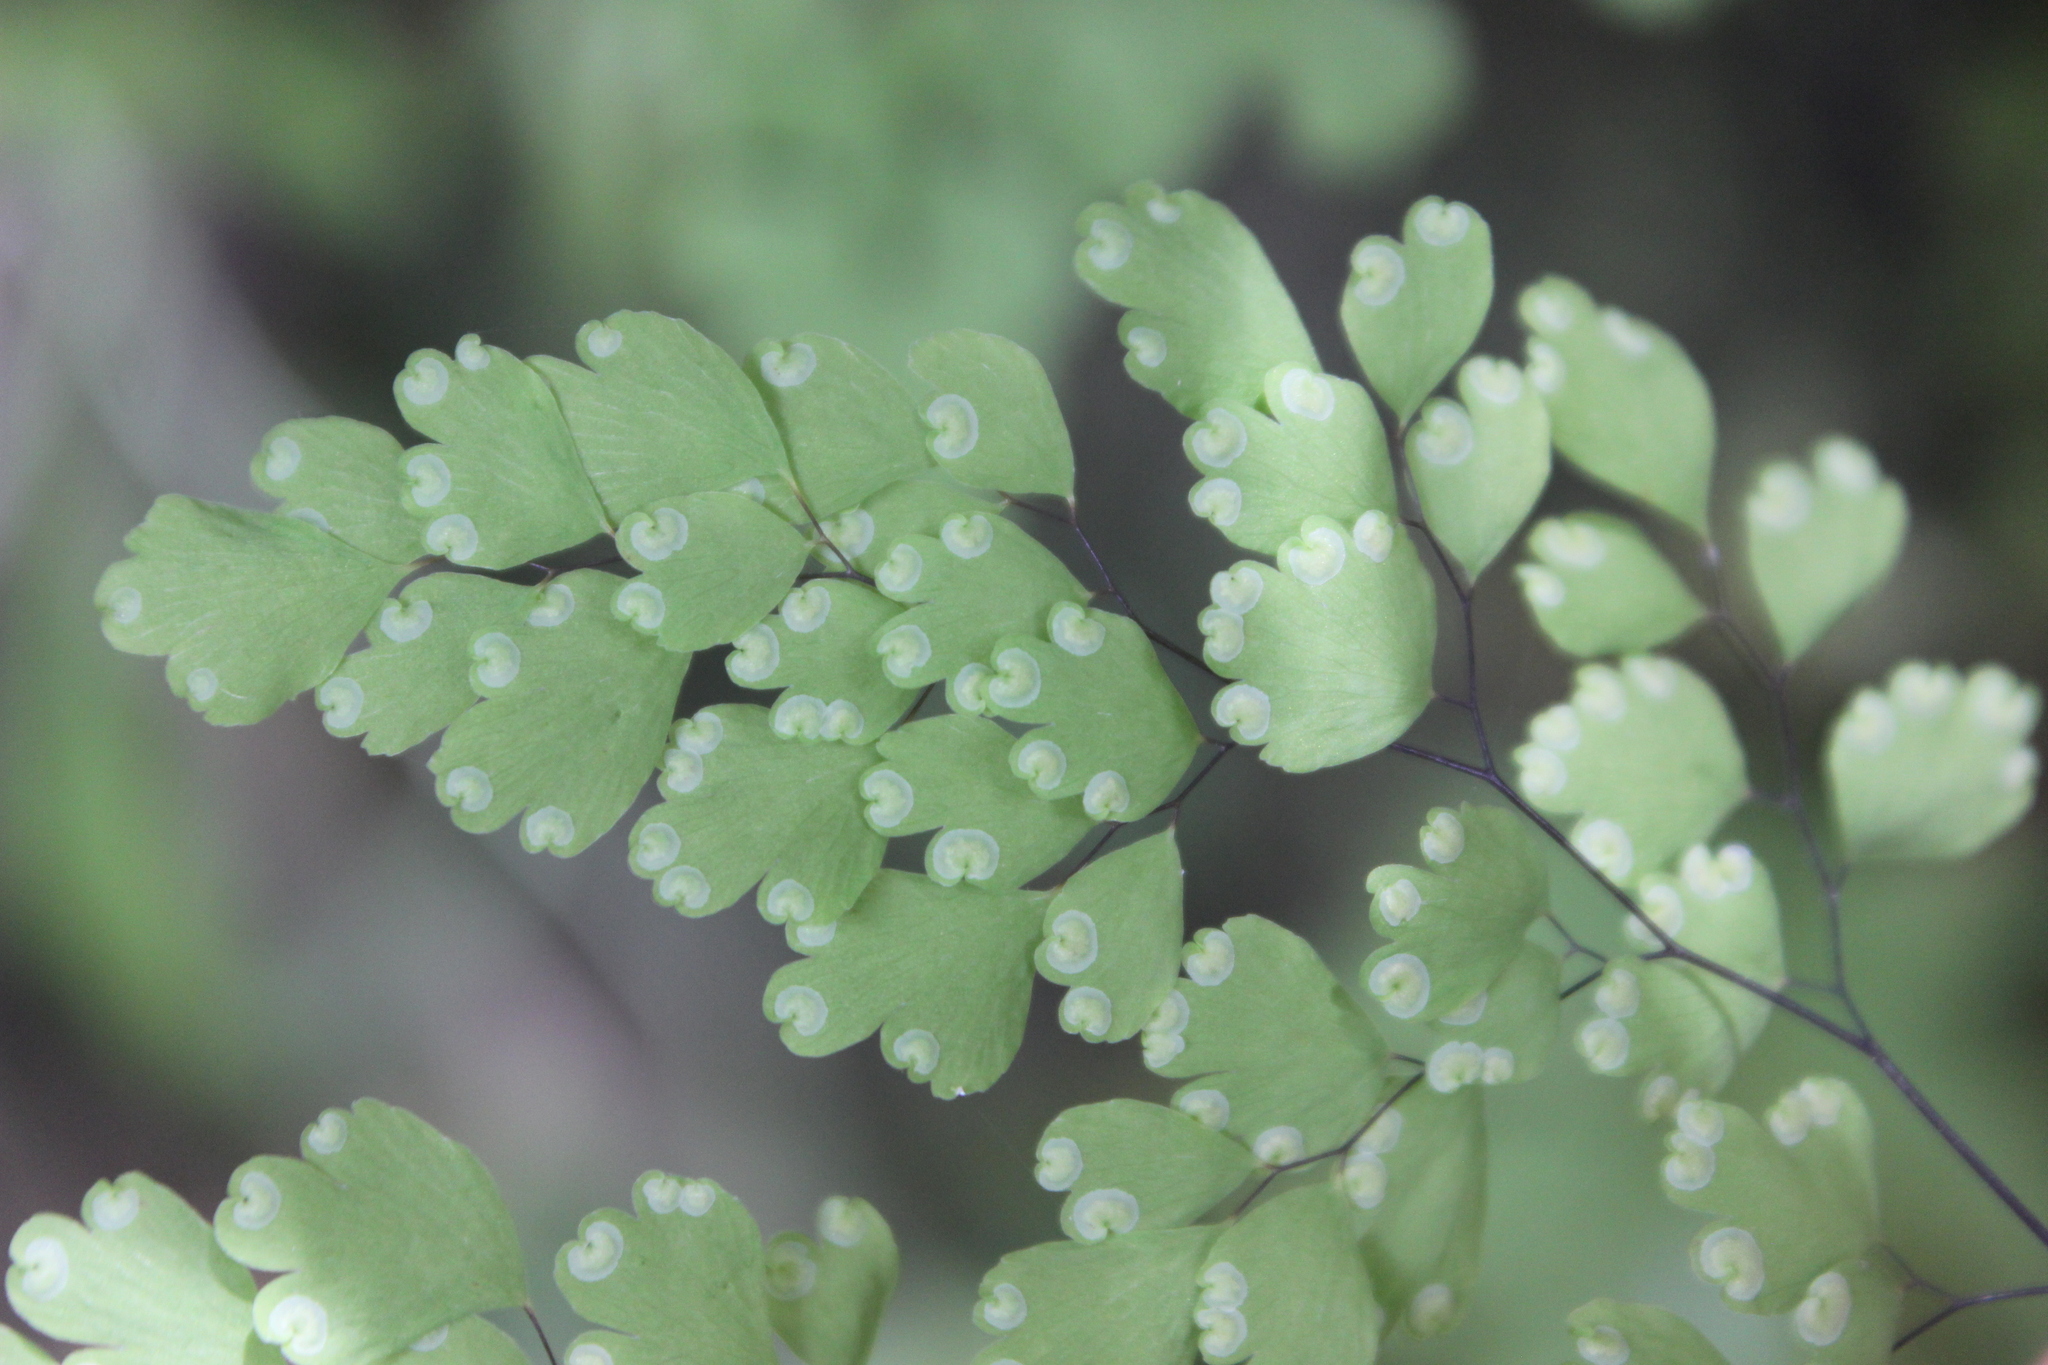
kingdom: Plantae
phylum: Tracheophyta
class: Polypodiopsida
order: Polypodiales
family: Pteridaceae
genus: Adiantum
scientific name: Adiantum raddianum
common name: Delta maidenhair fern
